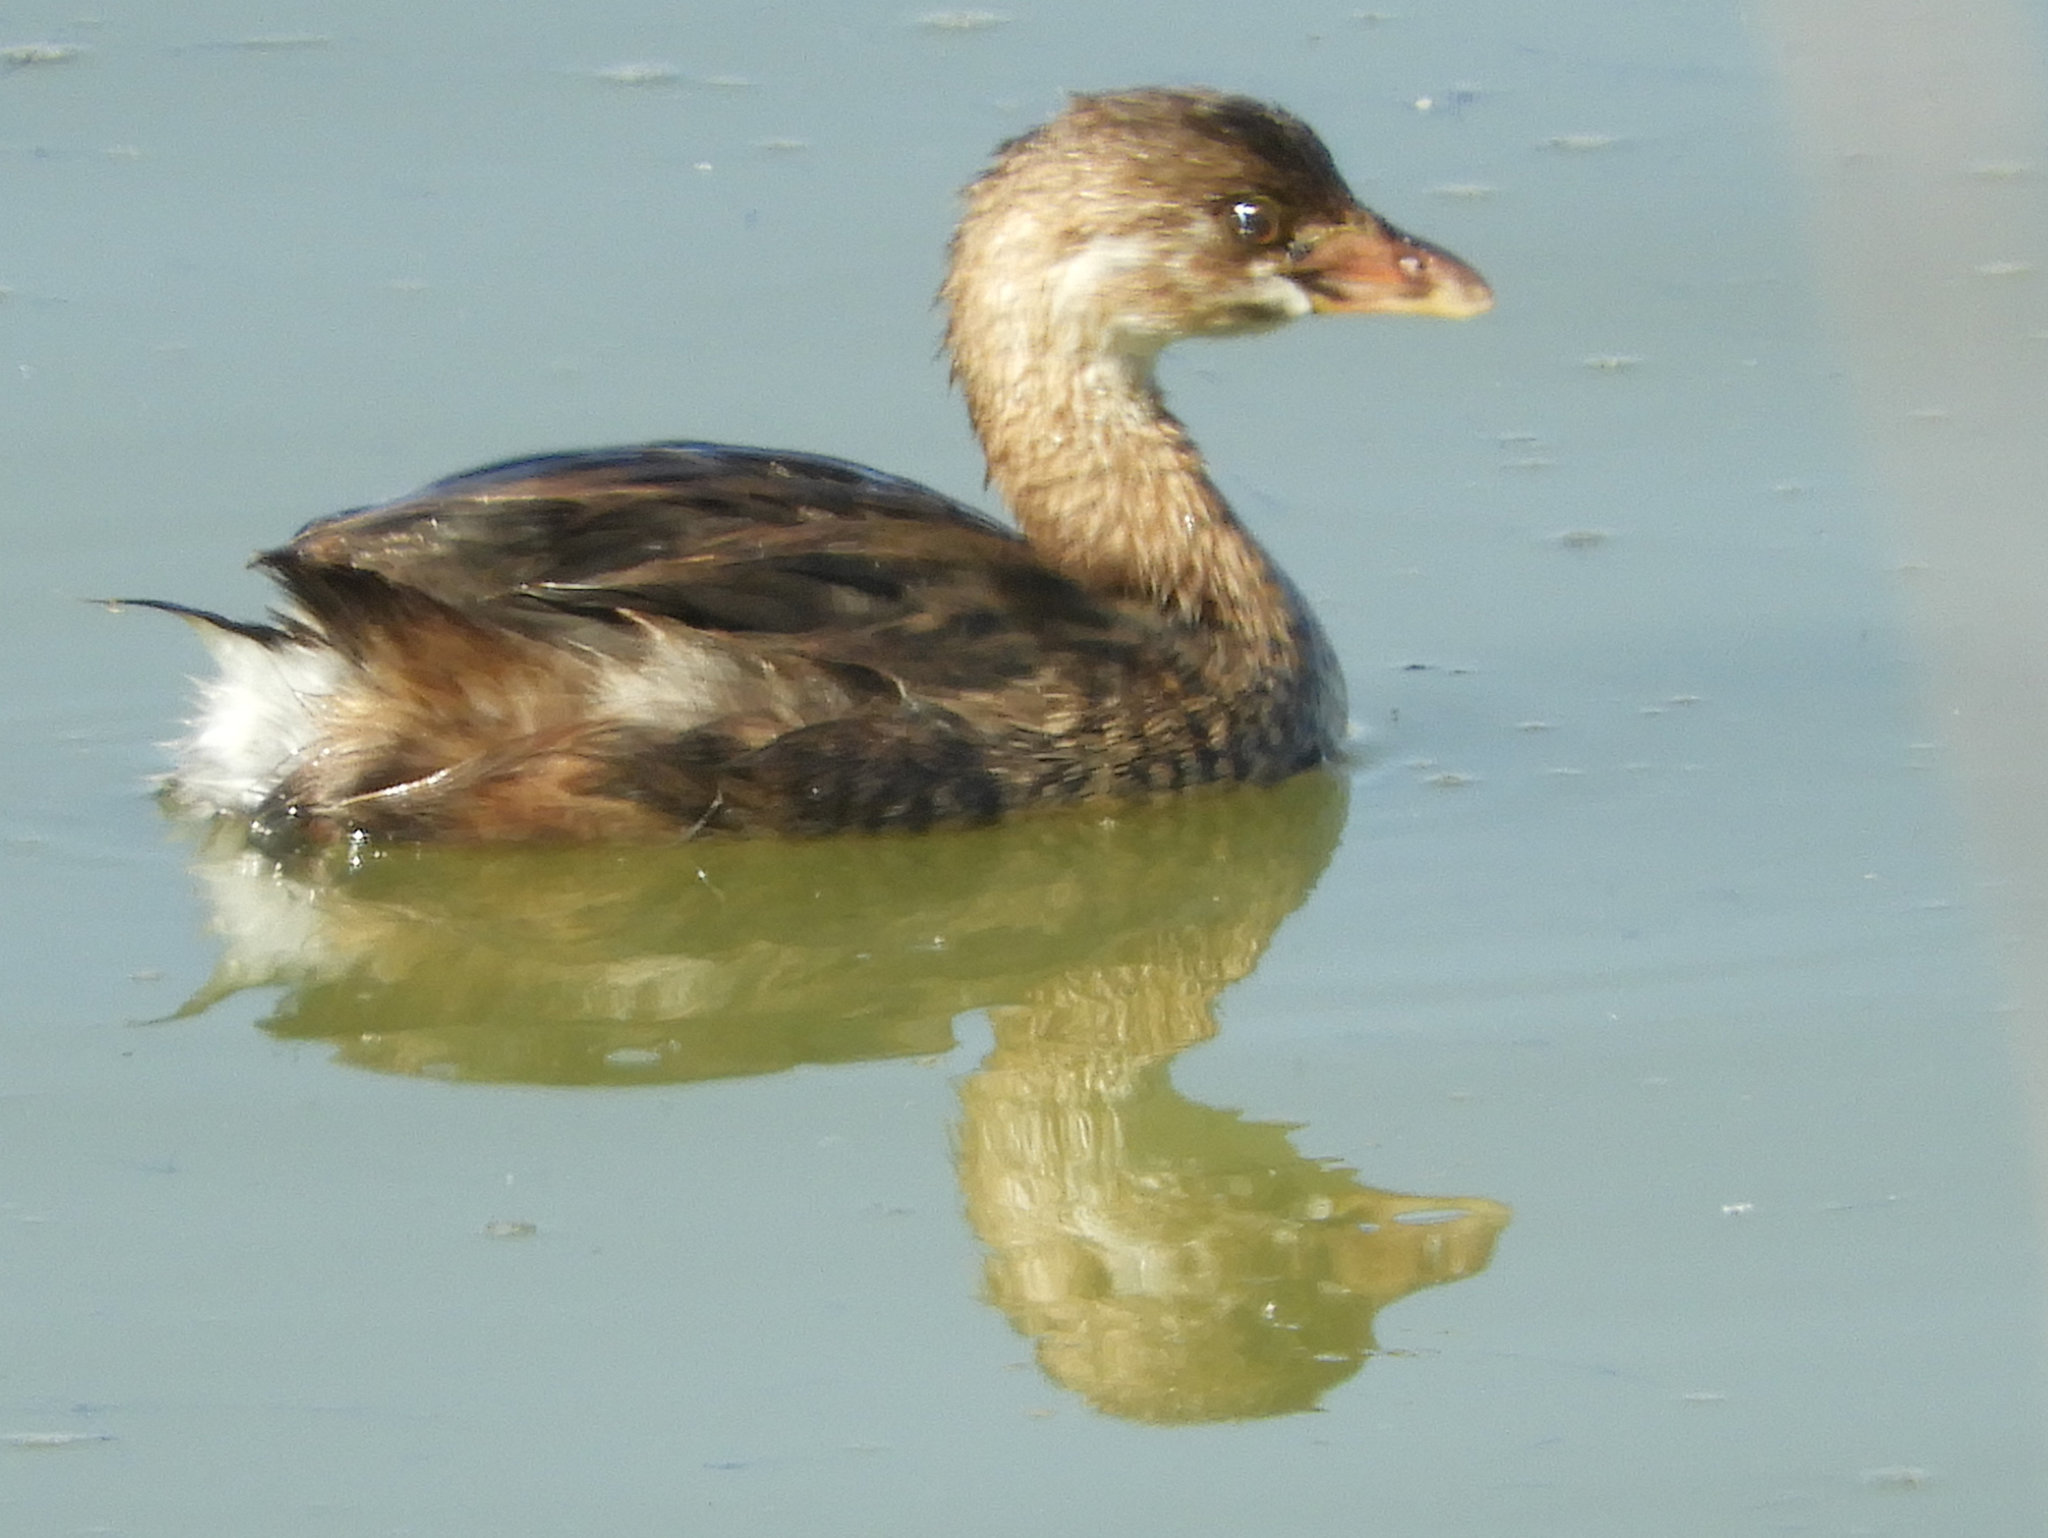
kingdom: Animalia
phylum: Chordata
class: Aves
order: Podicipediformes
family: Podicipedidae
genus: Podilymbus
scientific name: Podilymbus podiceps
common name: Pied-billed grebe
